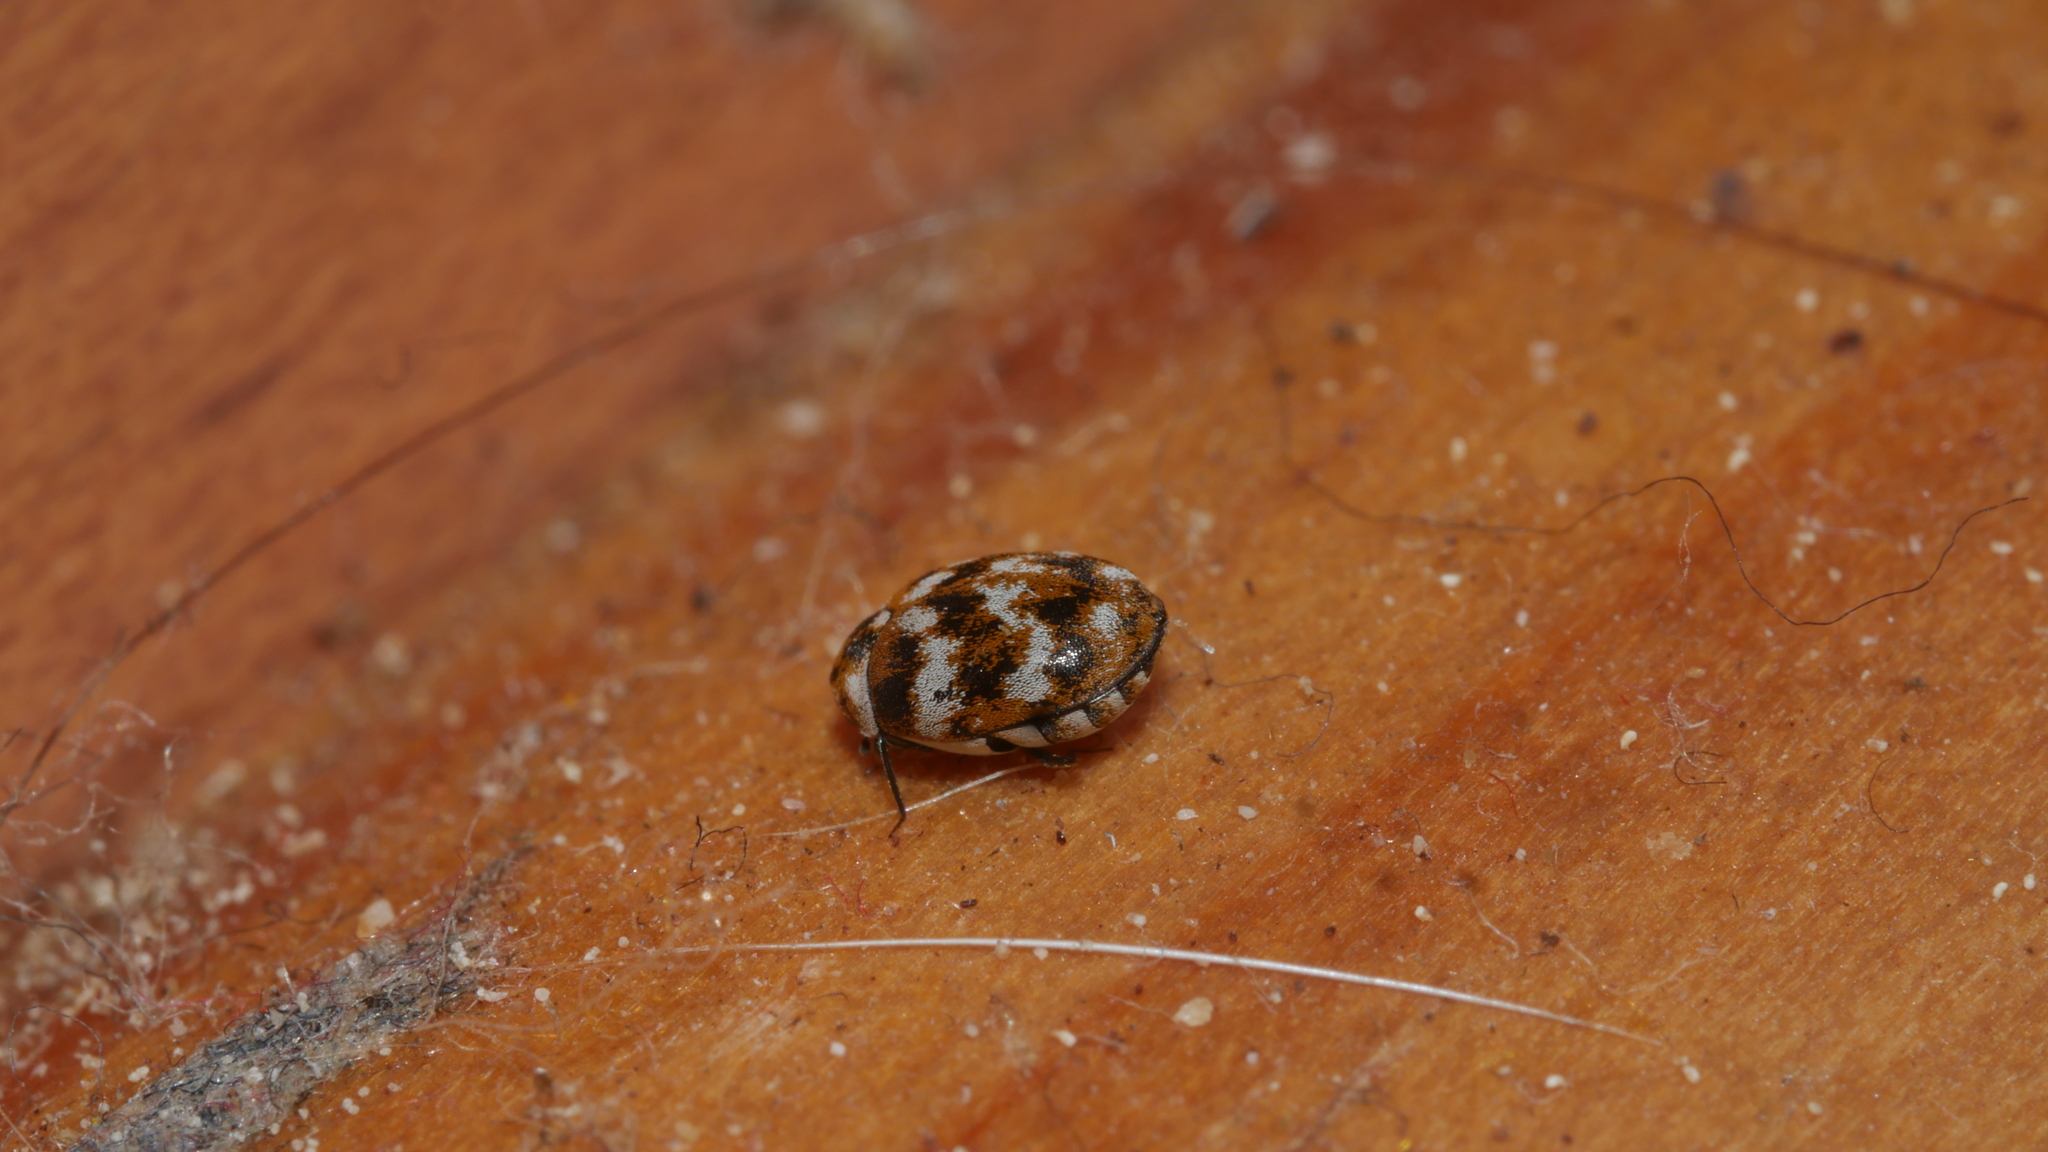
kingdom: Animalia
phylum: Arthropoda
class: Insecta
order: Coleoptera
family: Dermestidae
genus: Anthrenus
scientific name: Anthrenus verbasci
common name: Varied carpet beetle
